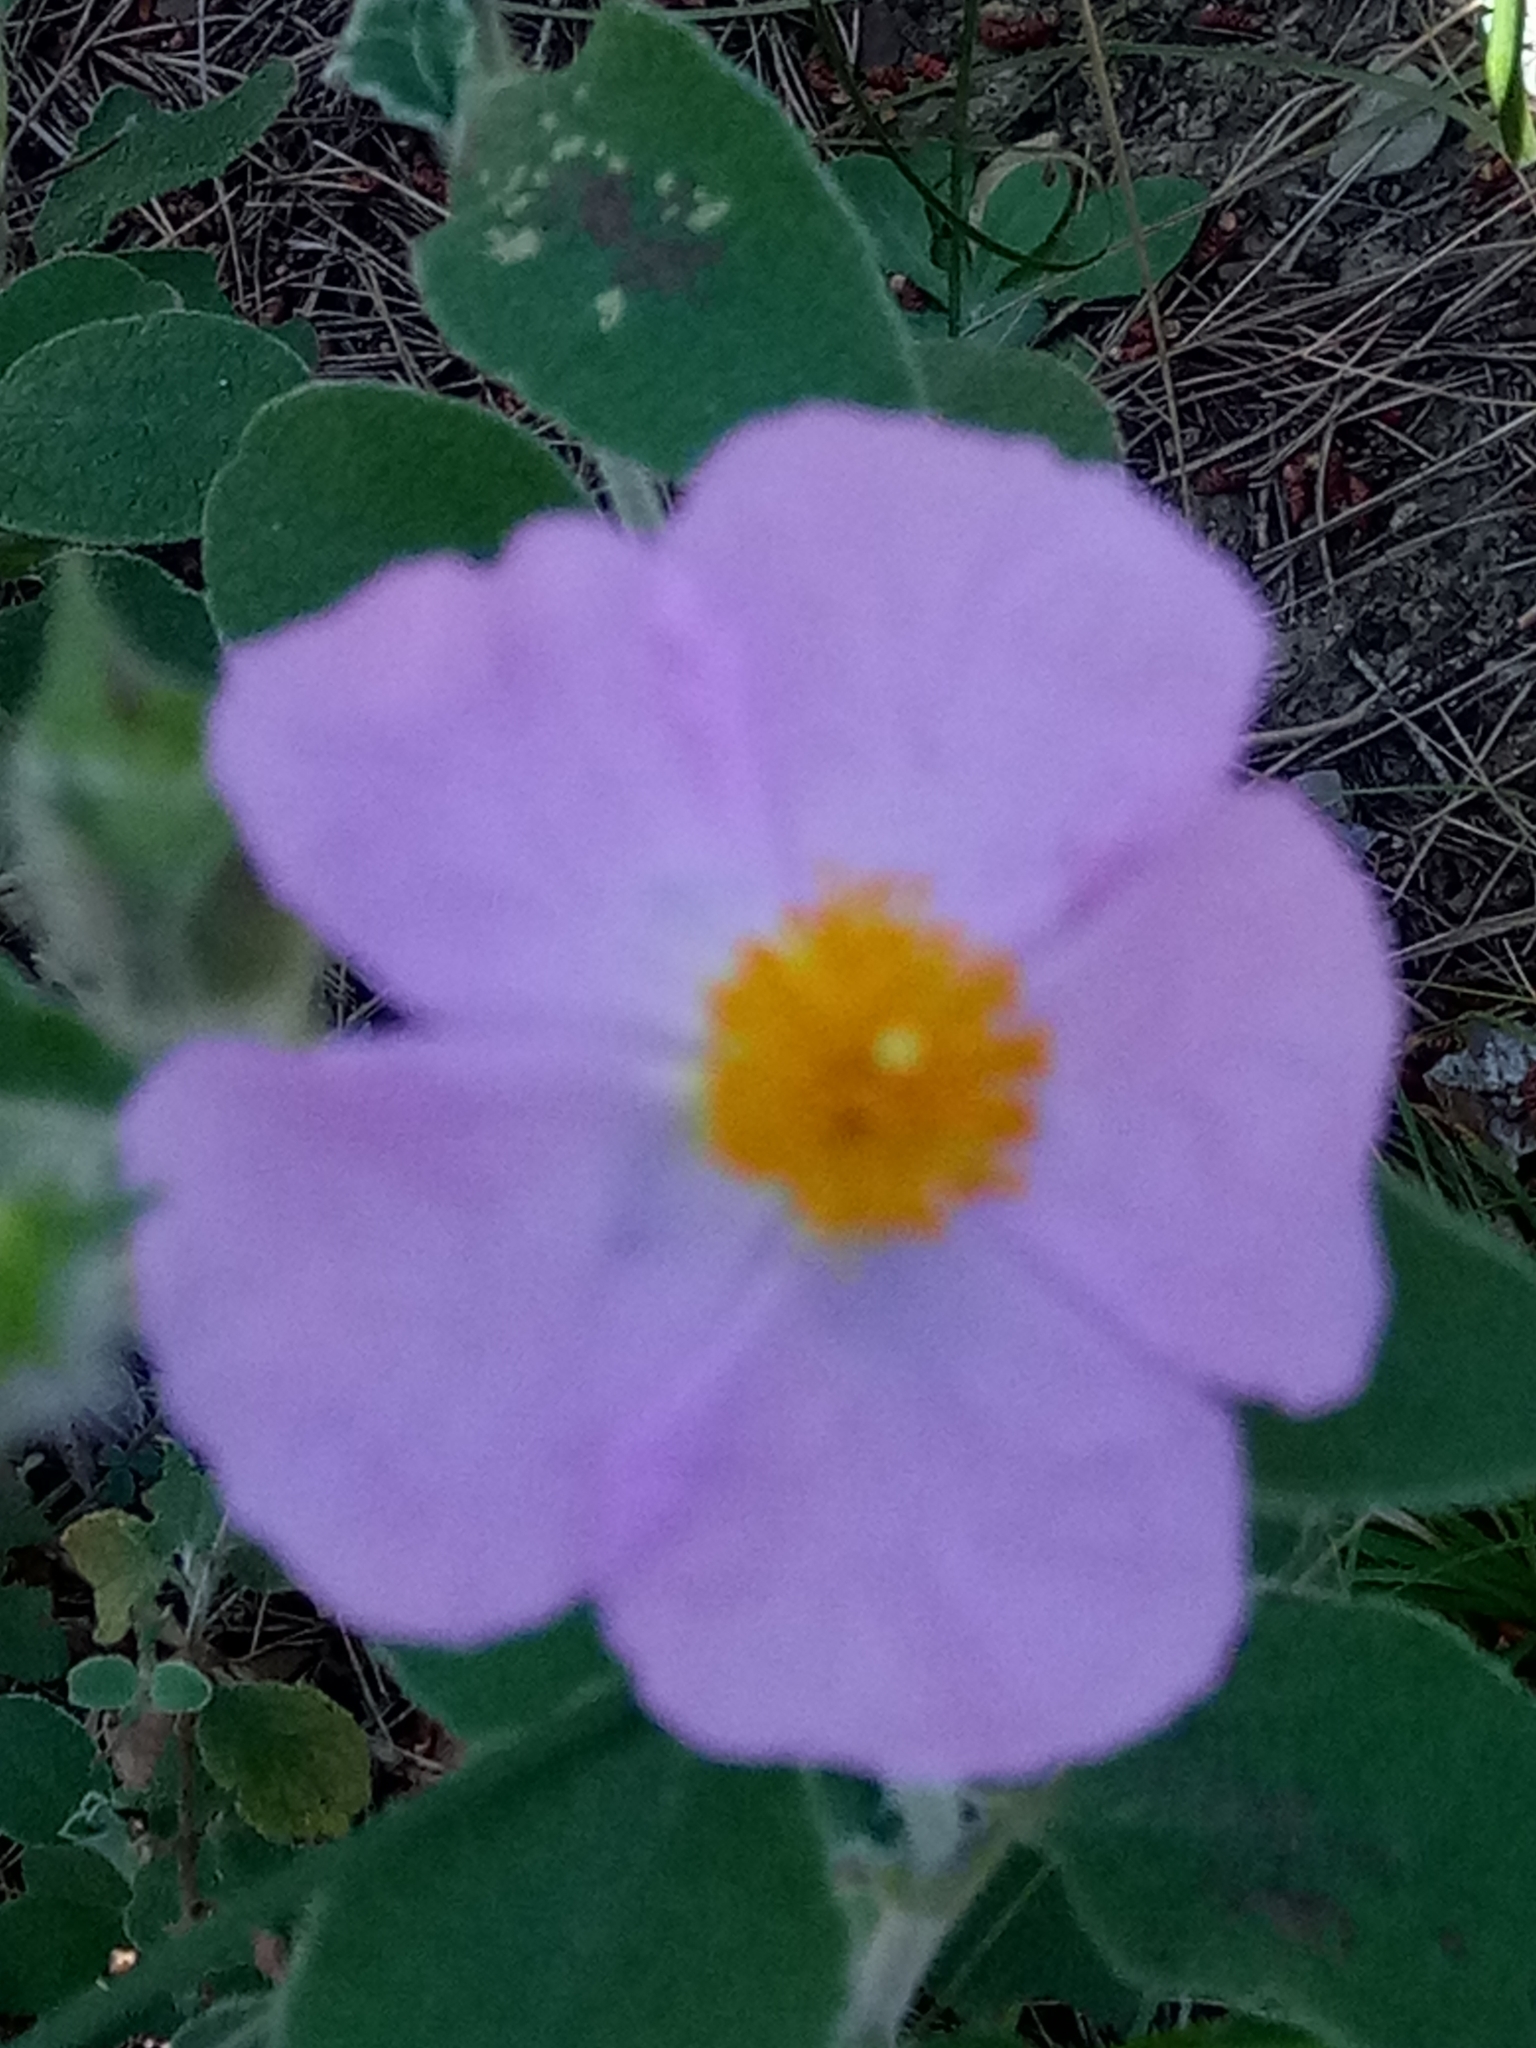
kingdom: Plantae
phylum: Tracheophyta
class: Magnoliopsida
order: Malvales
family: Cistaceae
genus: Cistus
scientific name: Cistus creticus
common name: Cretan rockrose
